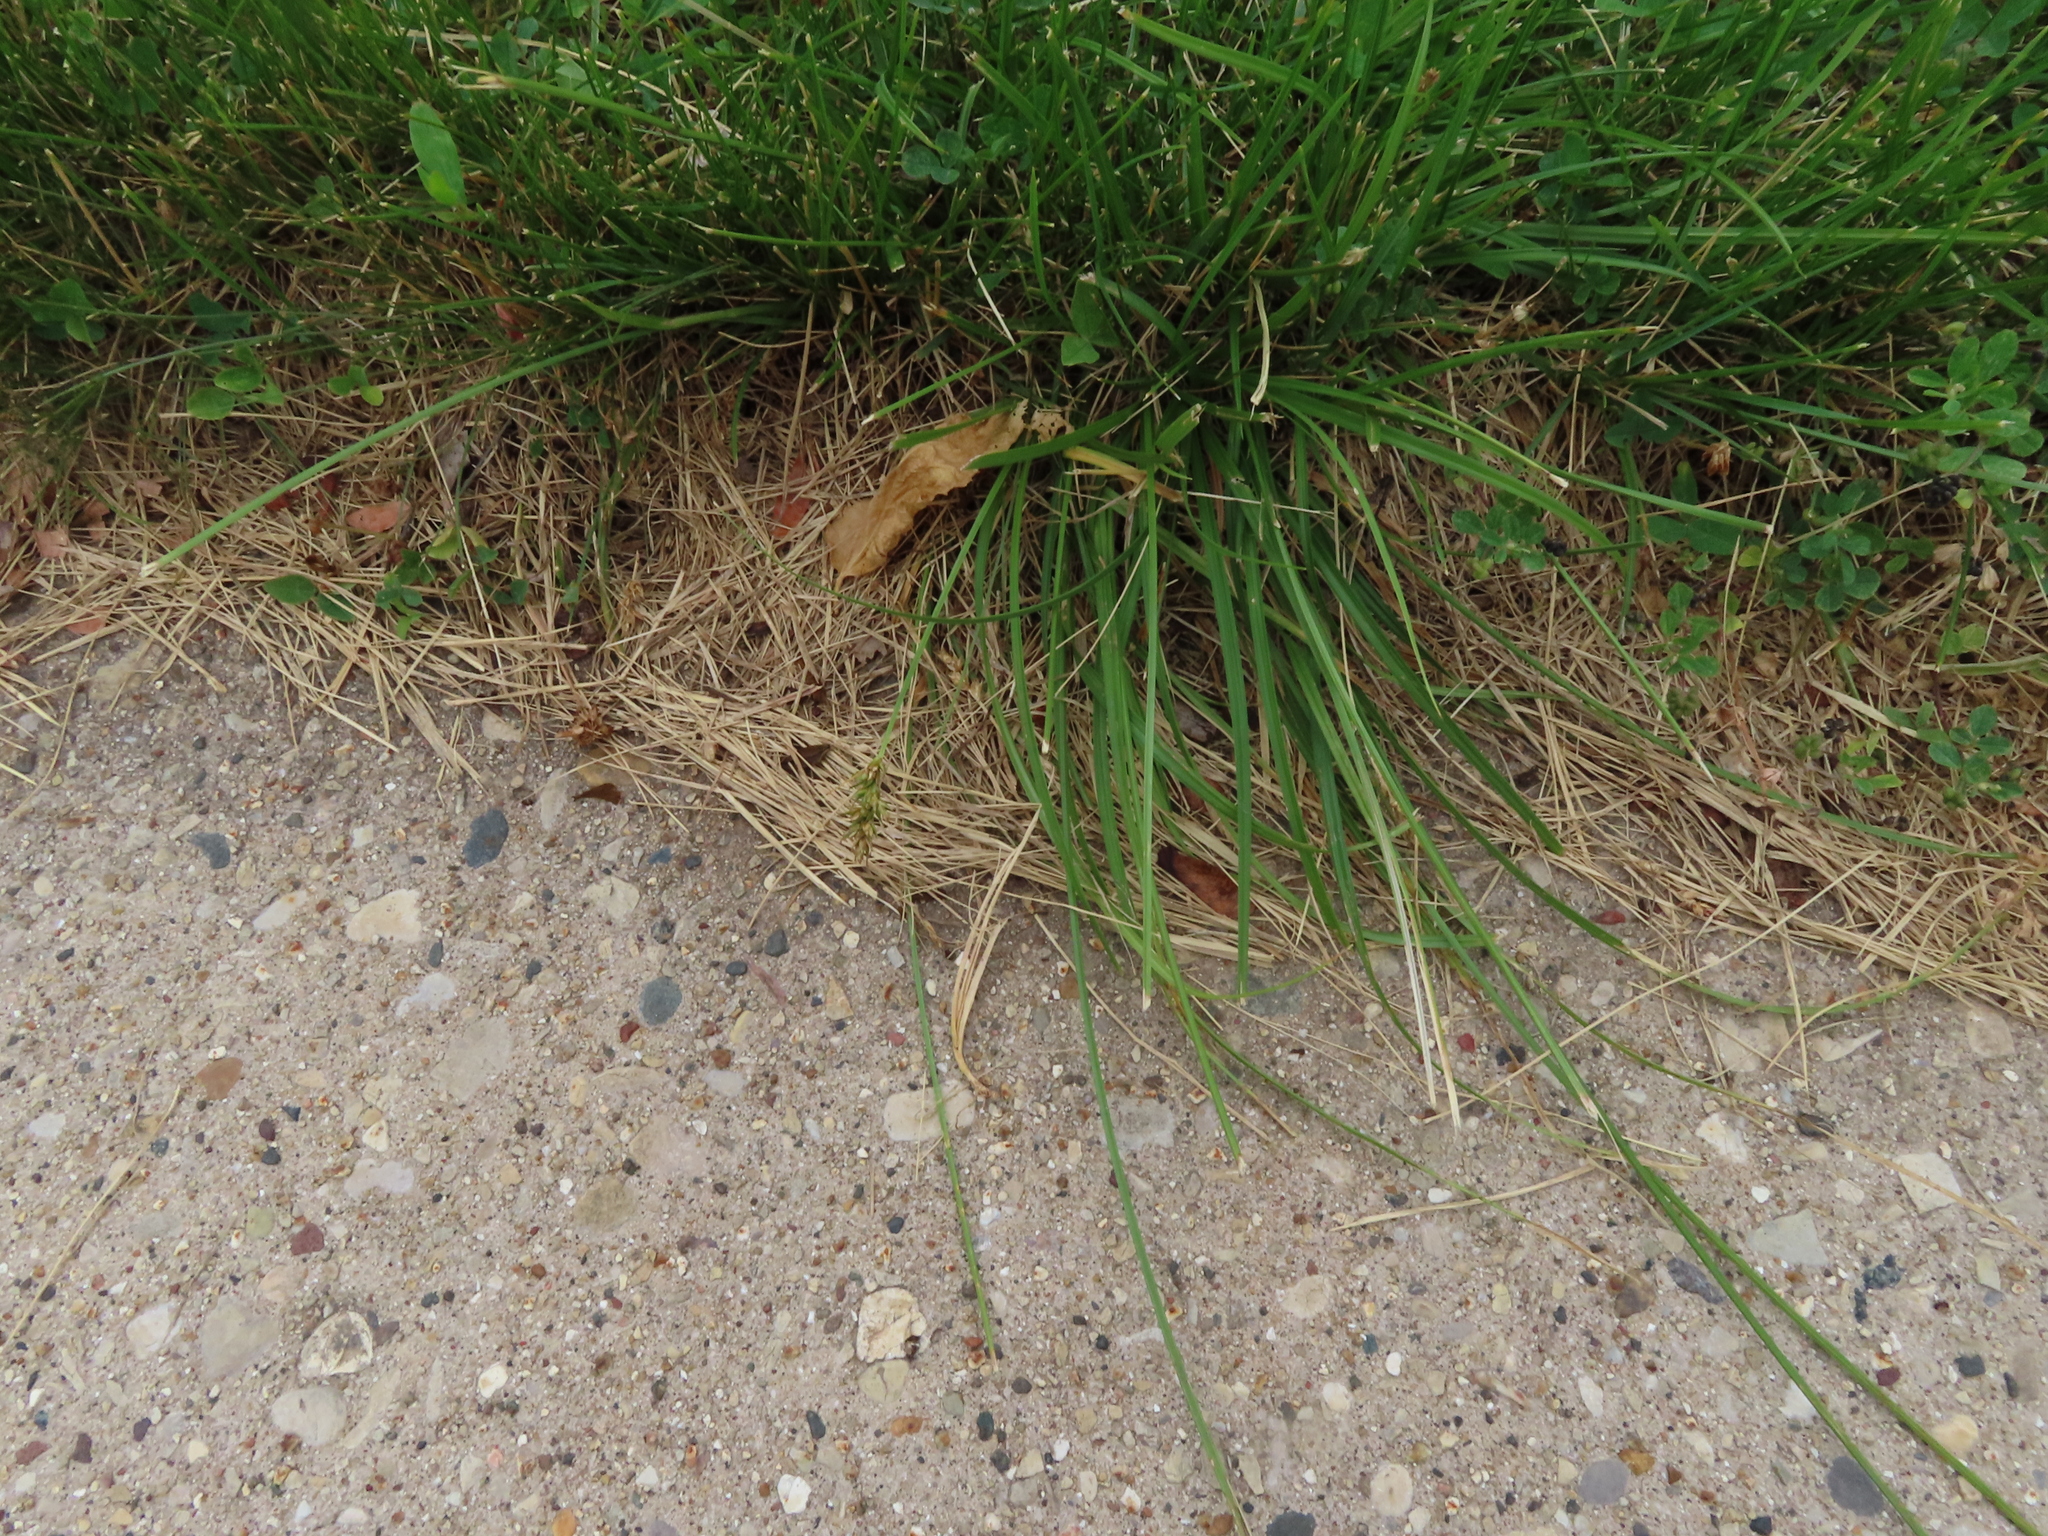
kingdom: Plantae
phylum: Tracheophyta
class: Liliopsida
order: Poales
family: Cyperaceae
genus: Carex
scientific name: Carex spicata
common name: Spiked sedge
